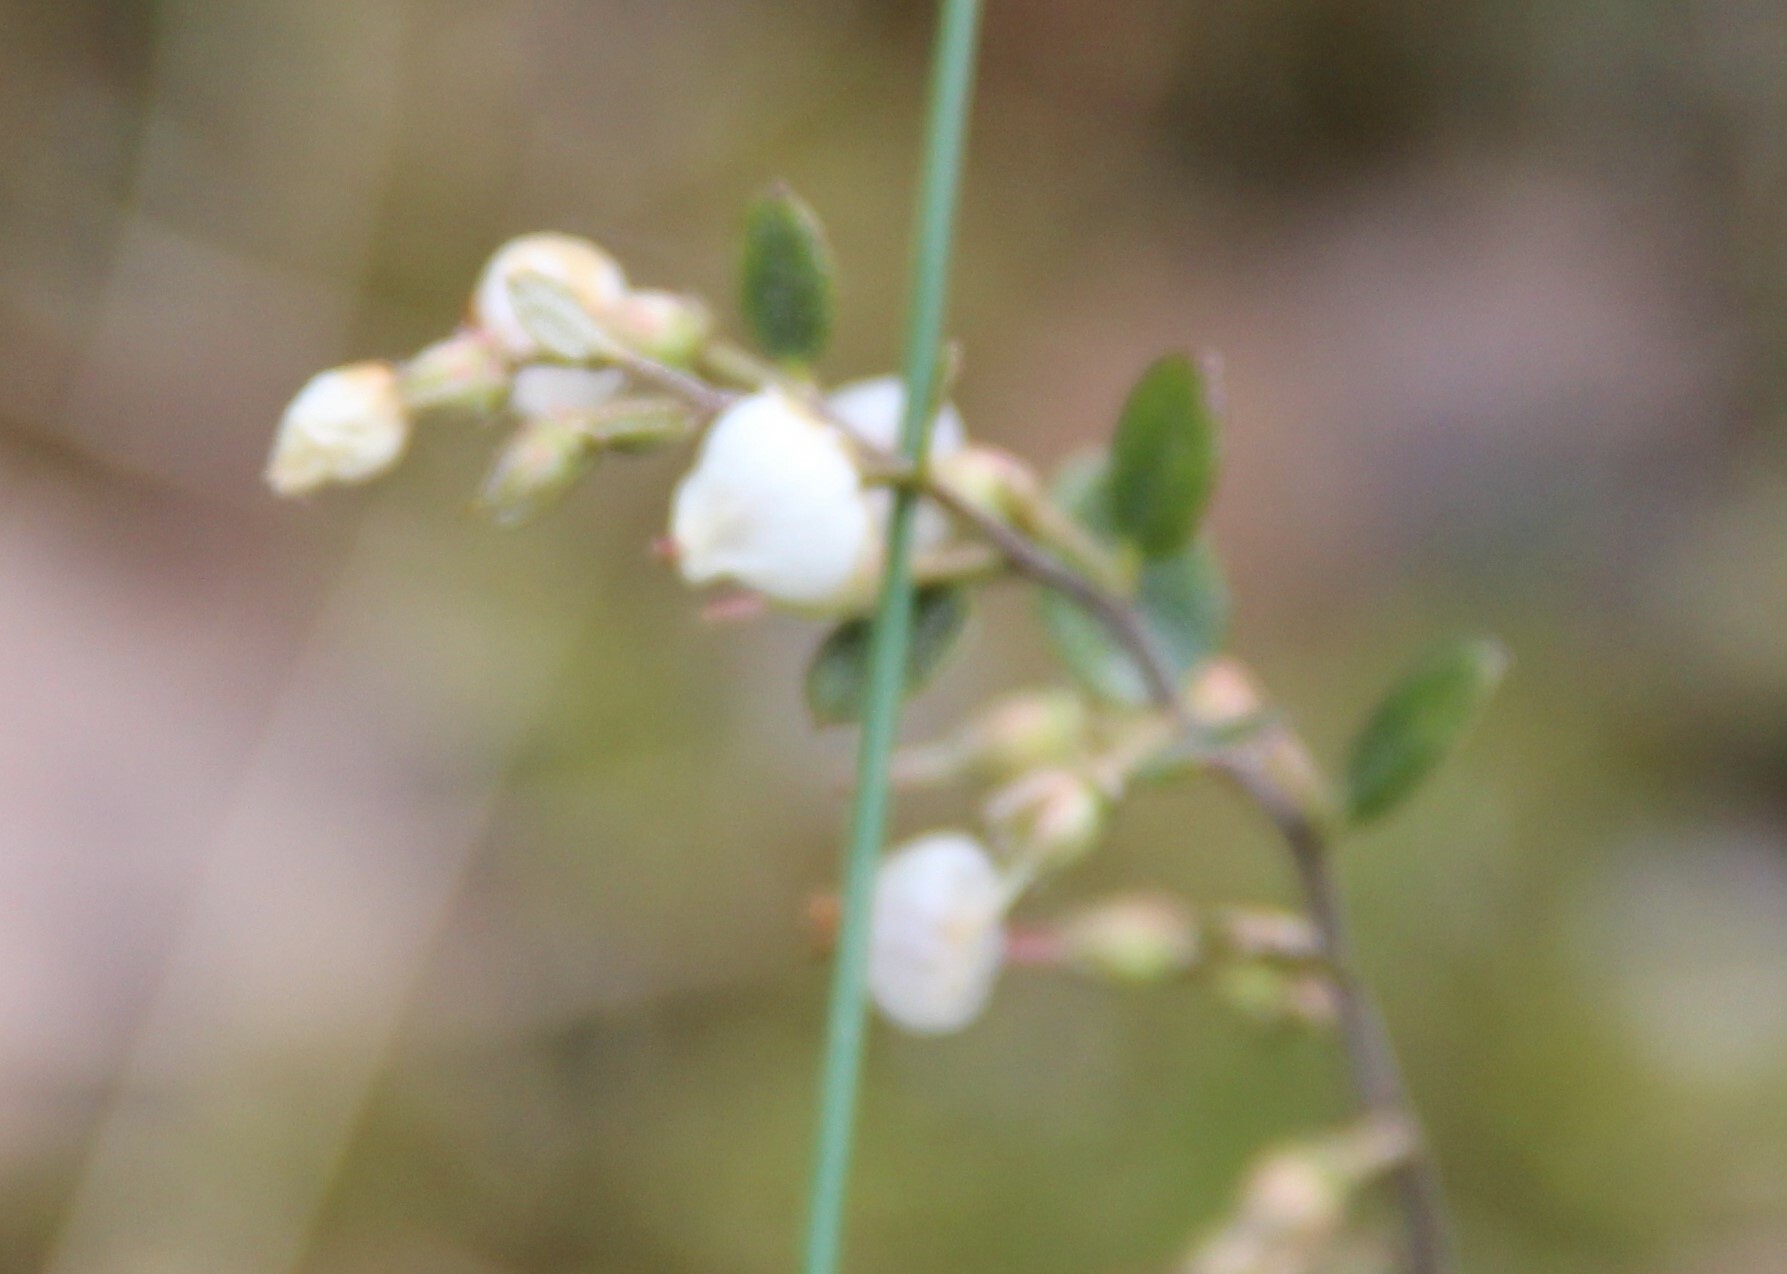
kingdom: Plantae
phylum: Tracheophyta
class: Magnoliopsida
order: Ericales
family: Ericaceae
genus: Chamaedaphne
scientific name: Chamaedaphne calyculata
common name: Leatherleaf
